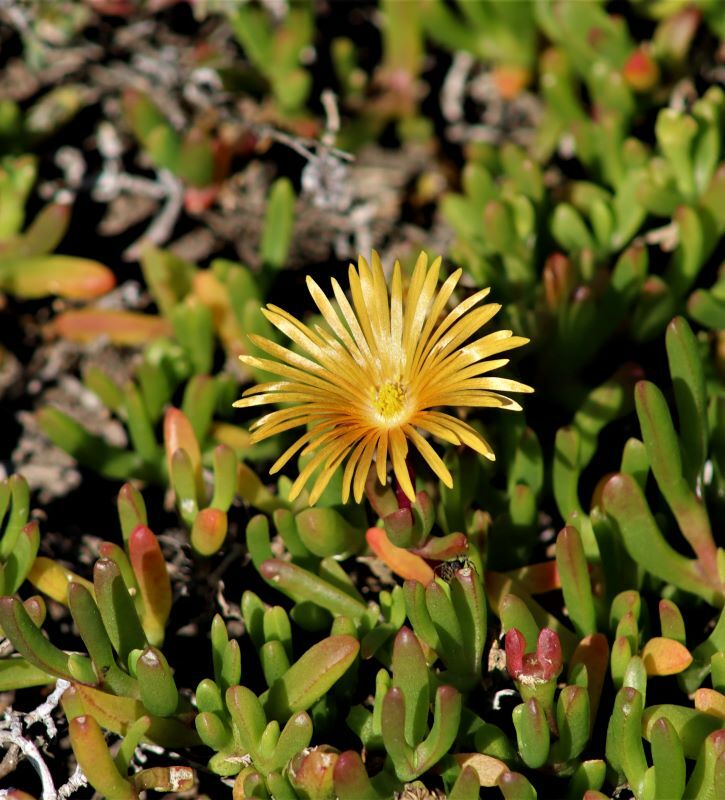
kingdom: Plantae
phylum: Tracheophyta
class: Magnoliopsida
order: Caryophyllales
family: Aizoaceae
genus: Malephora
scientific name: Malephora uitenhagensis
